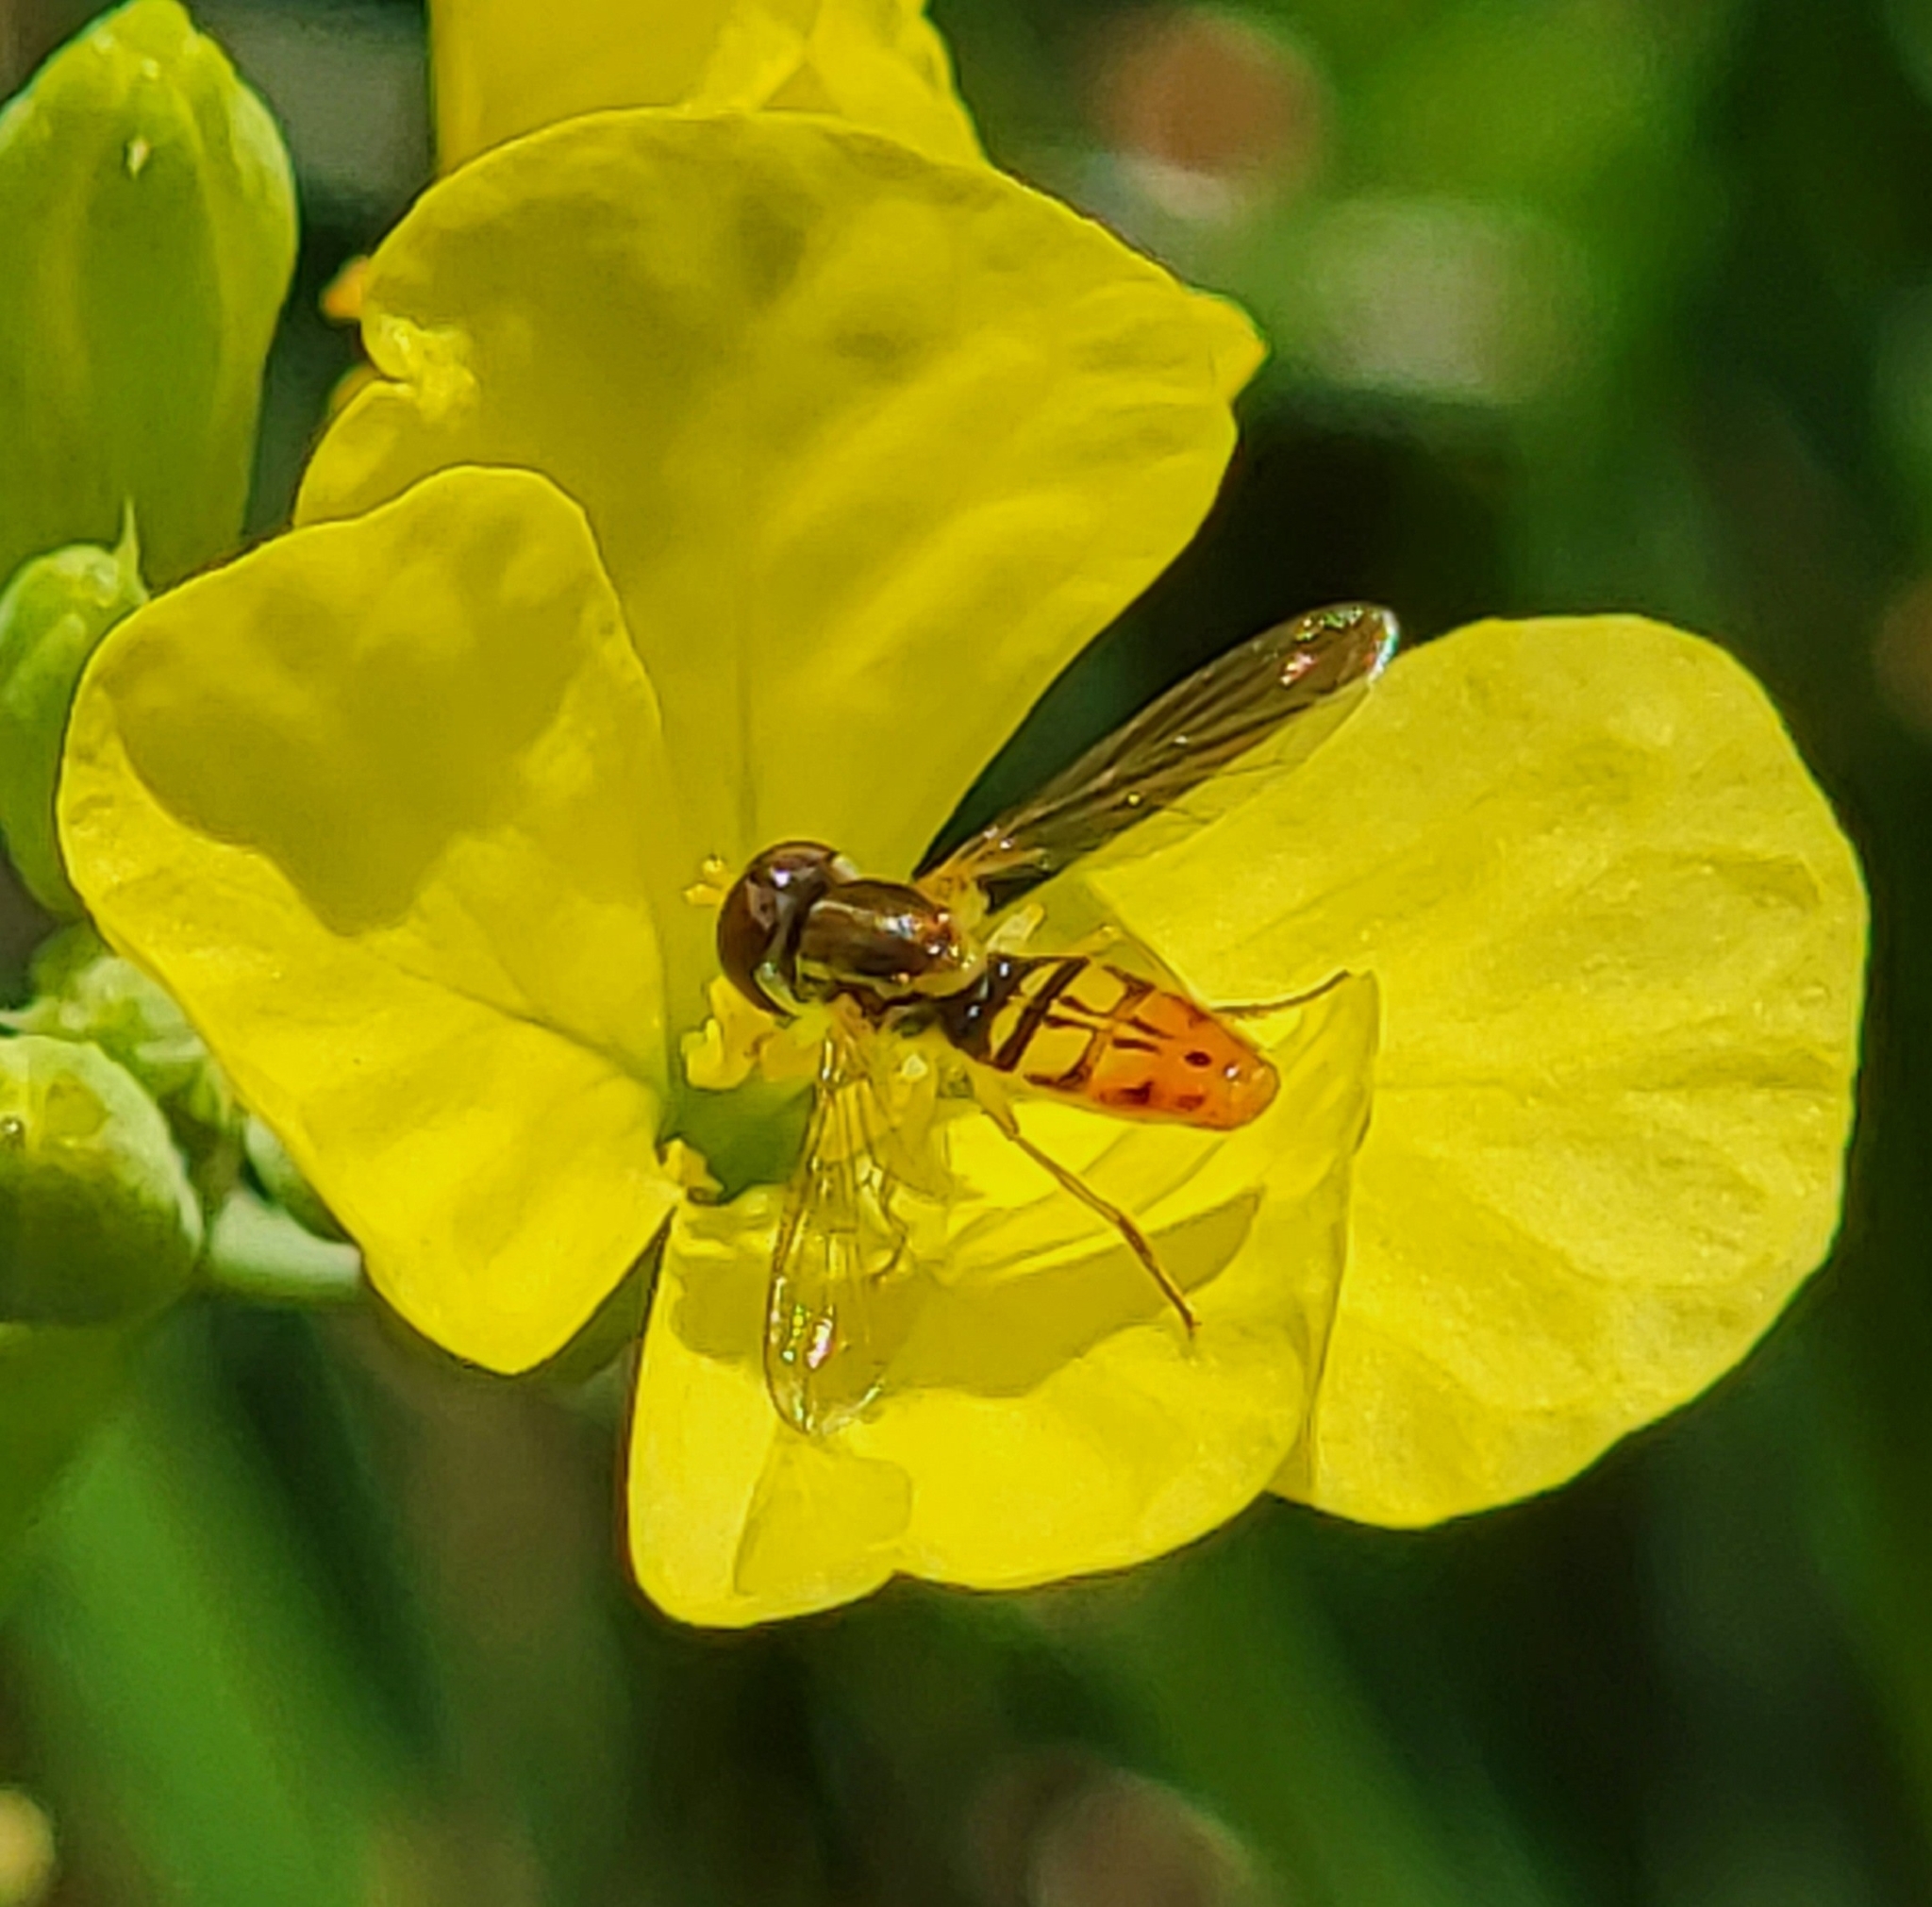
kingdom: Animalia
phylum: Arthropoda
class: Insecta
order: Diptera
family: Syrphidae
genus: Toxomerus
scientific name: Toxomerus marginatus
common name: Syrphid fly
